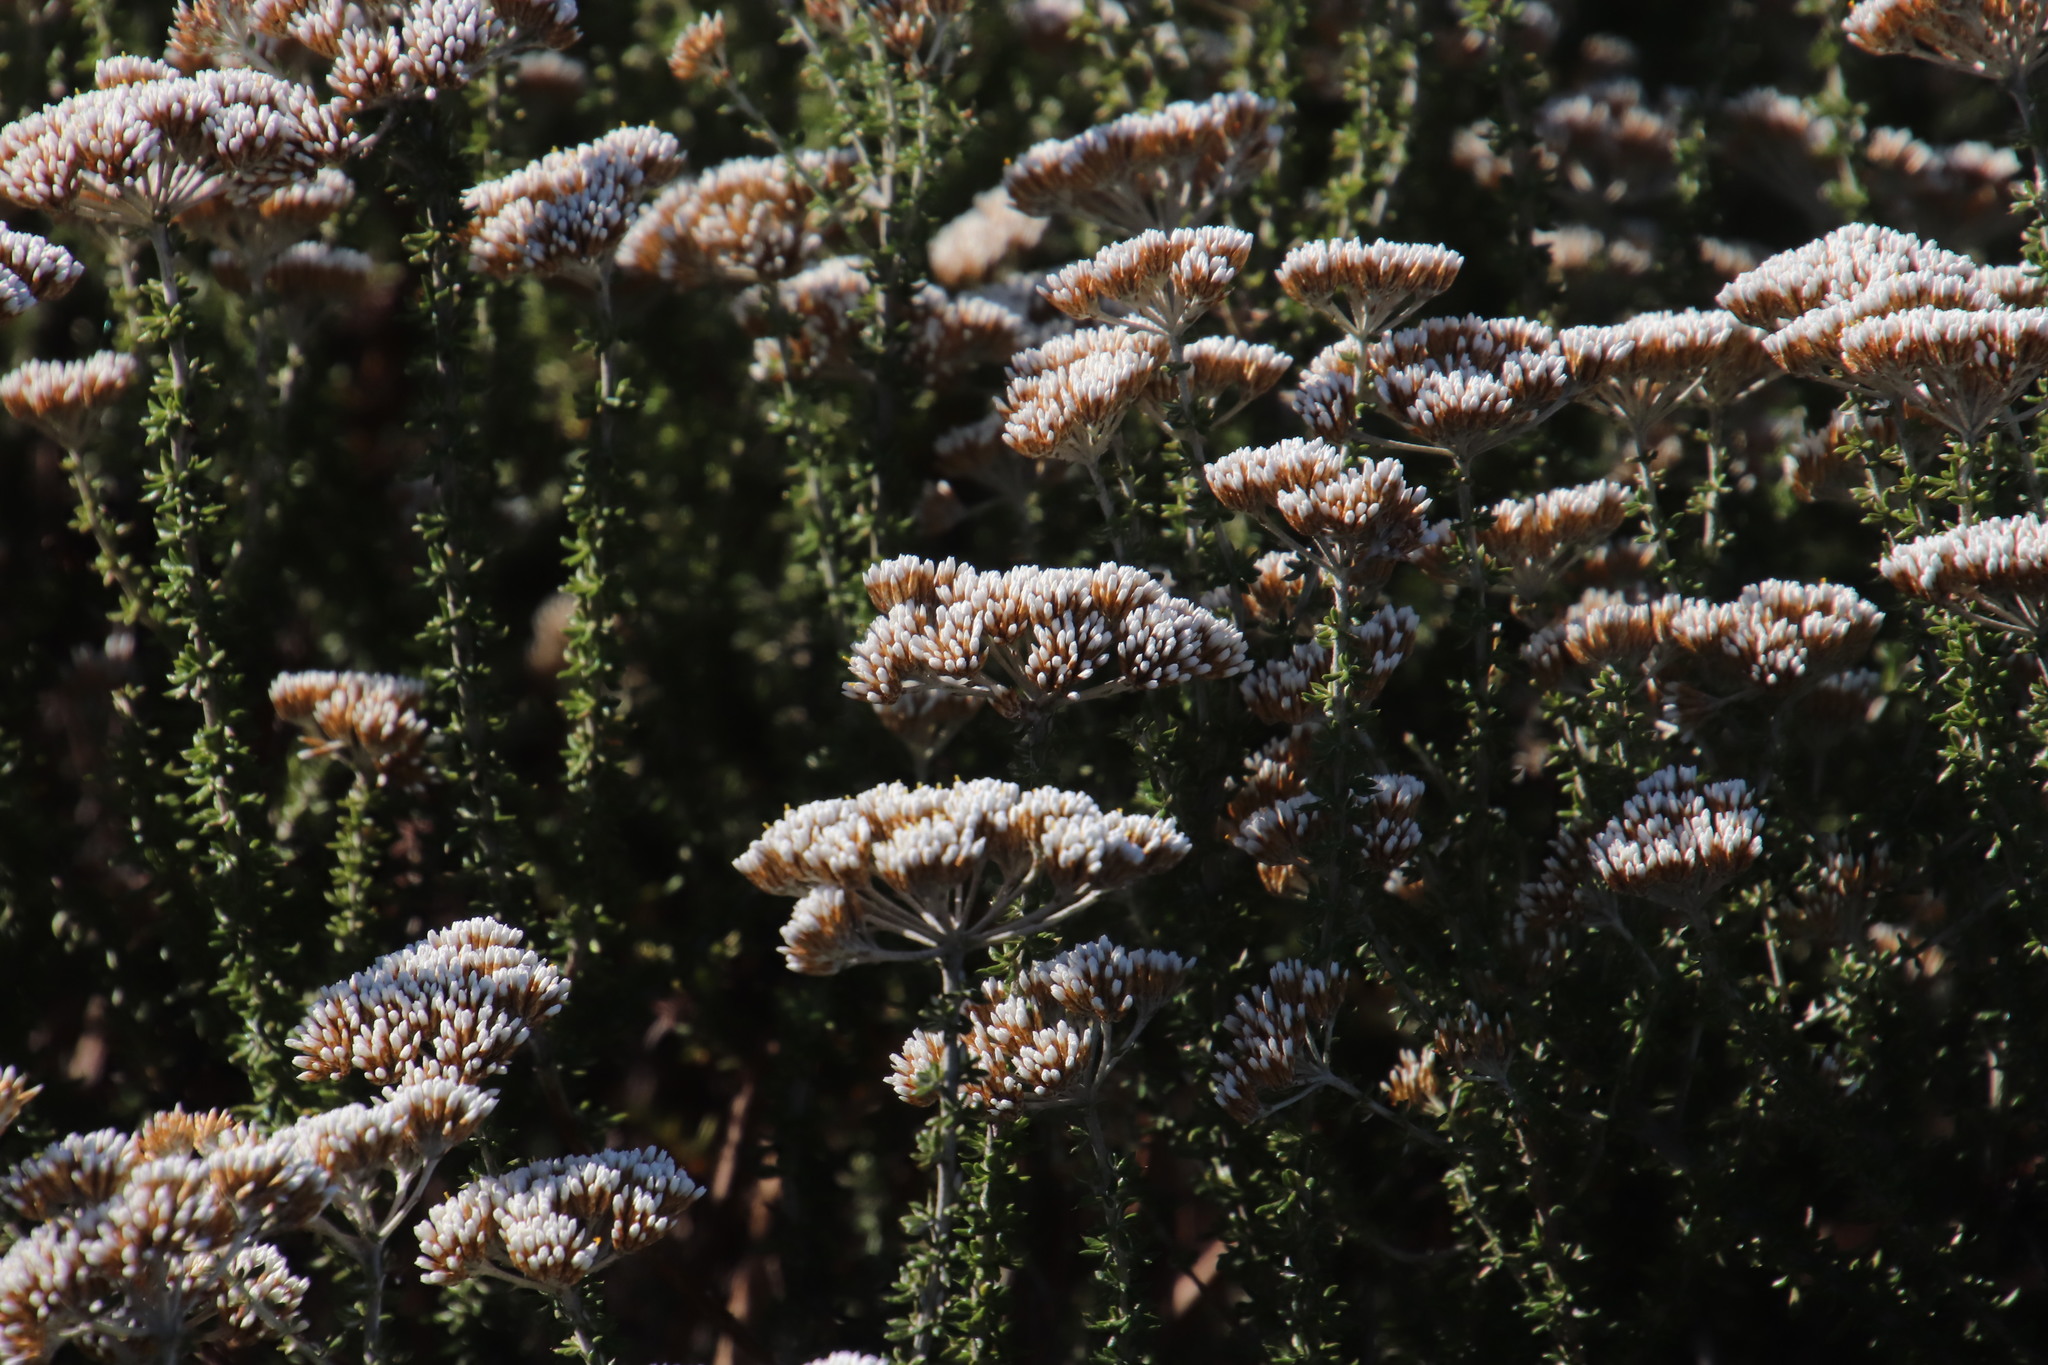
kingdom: Plantae
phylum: Tracheophyta
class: Magnoliopsida
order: Asterales
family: Asteraceae
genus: Metalasia
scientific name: Metalasia densa
